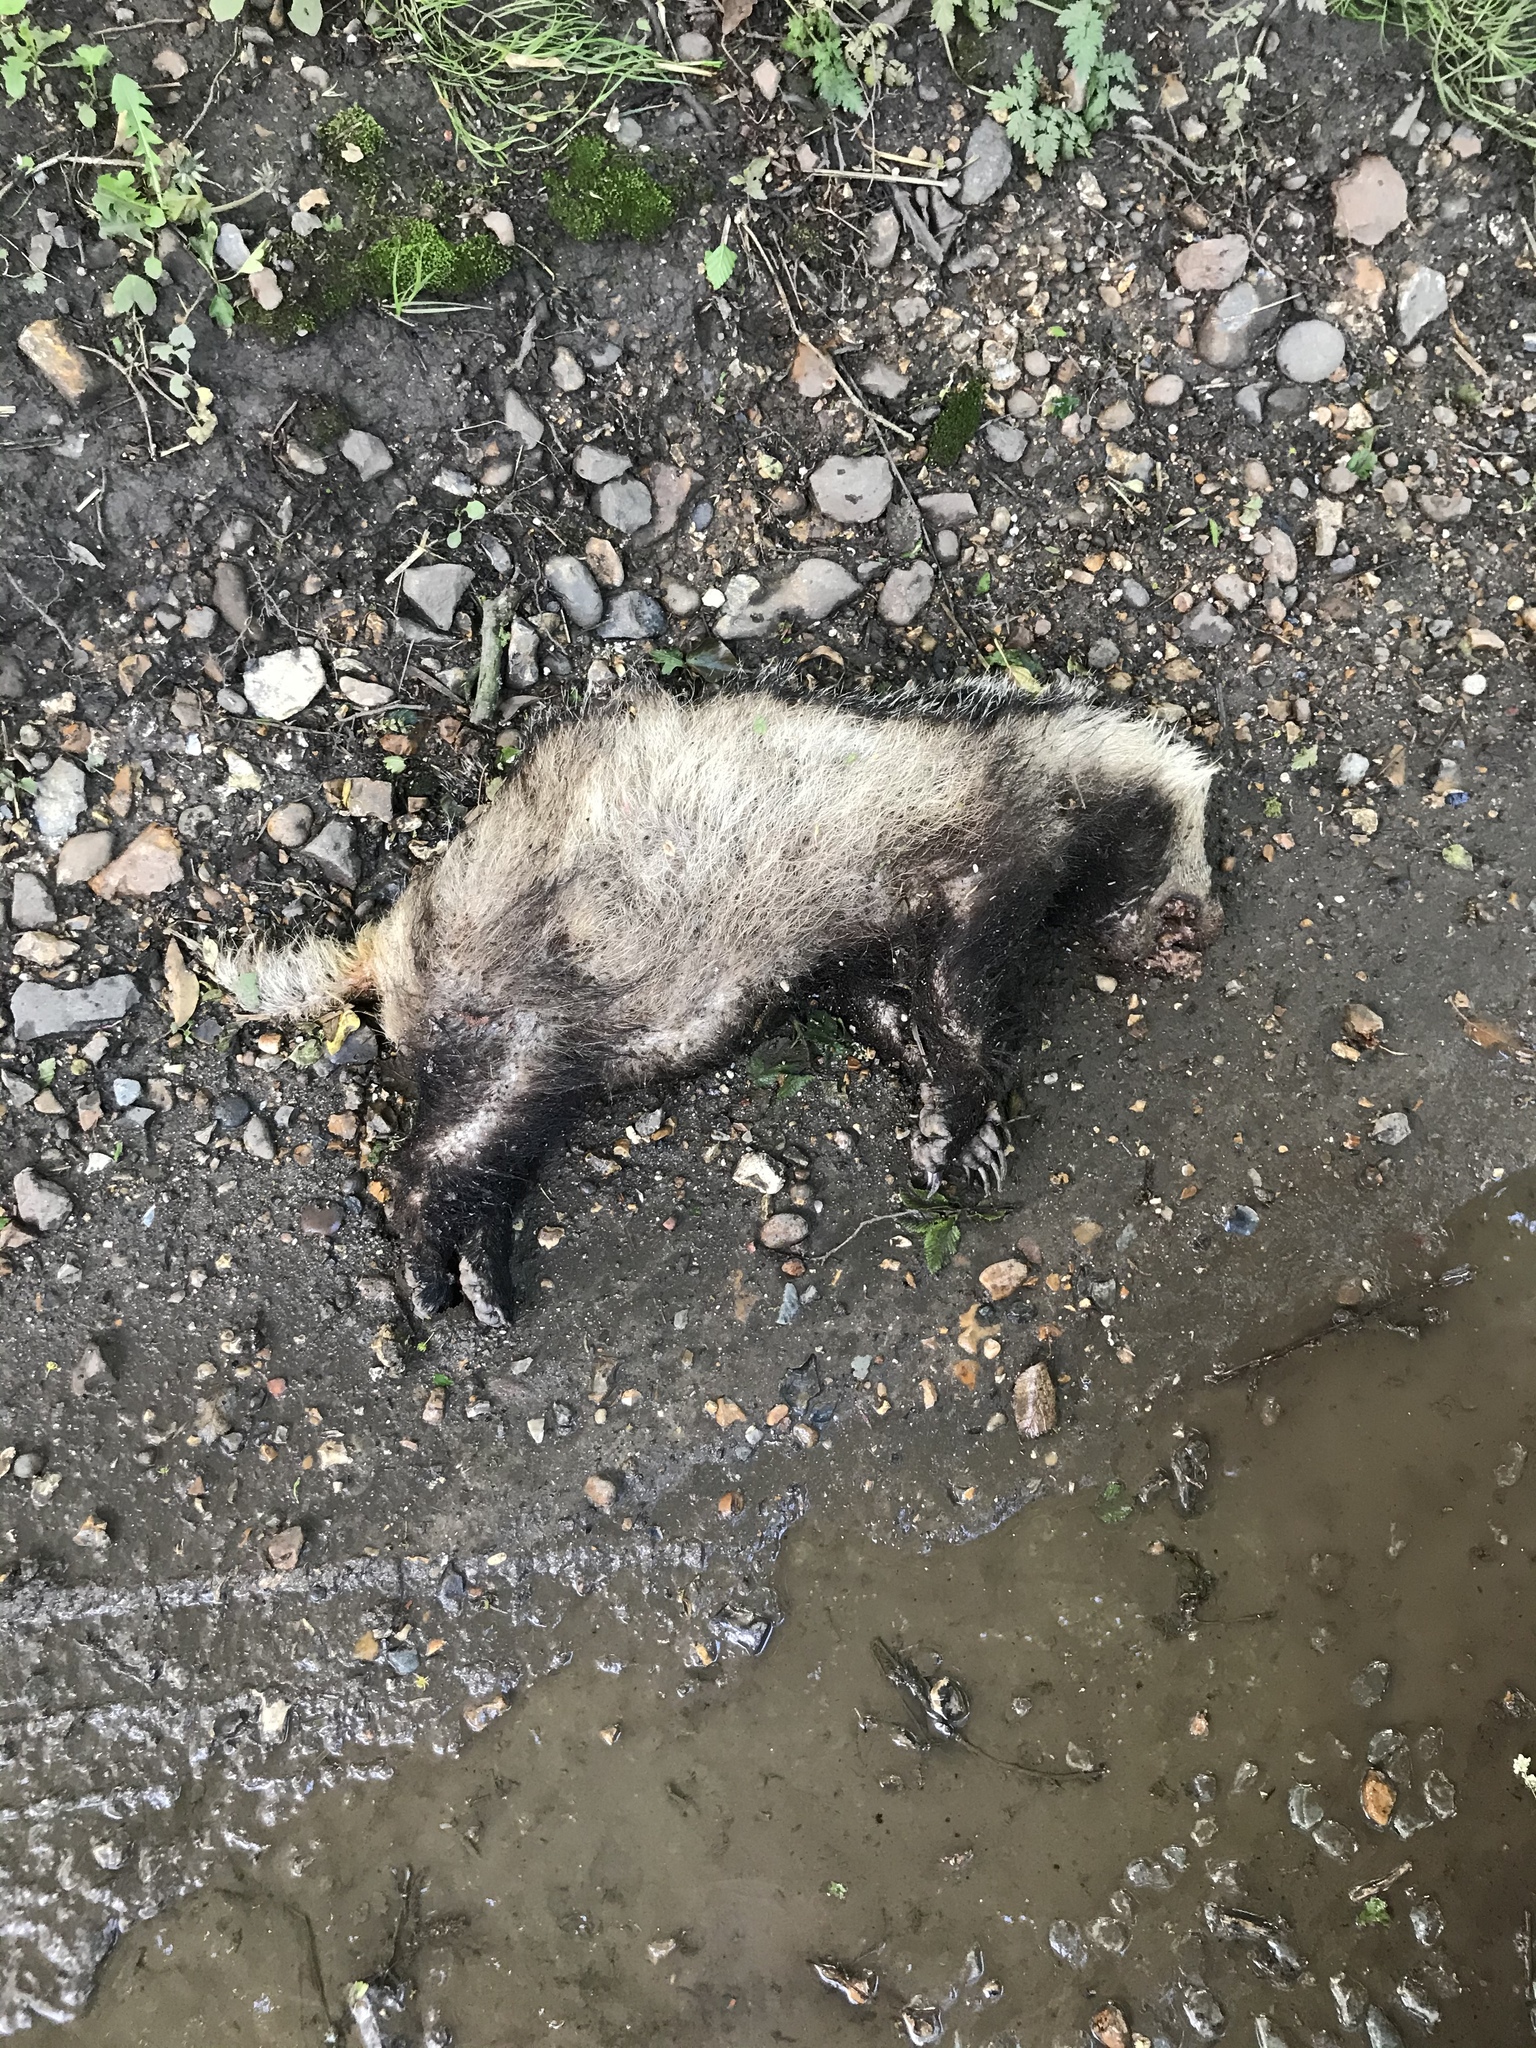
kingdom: Animalia
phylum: Chordata
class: Mammalia
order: Carnivora
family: Mustelidae
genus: Meles
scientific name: Meles meles
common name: Eurasian badger
